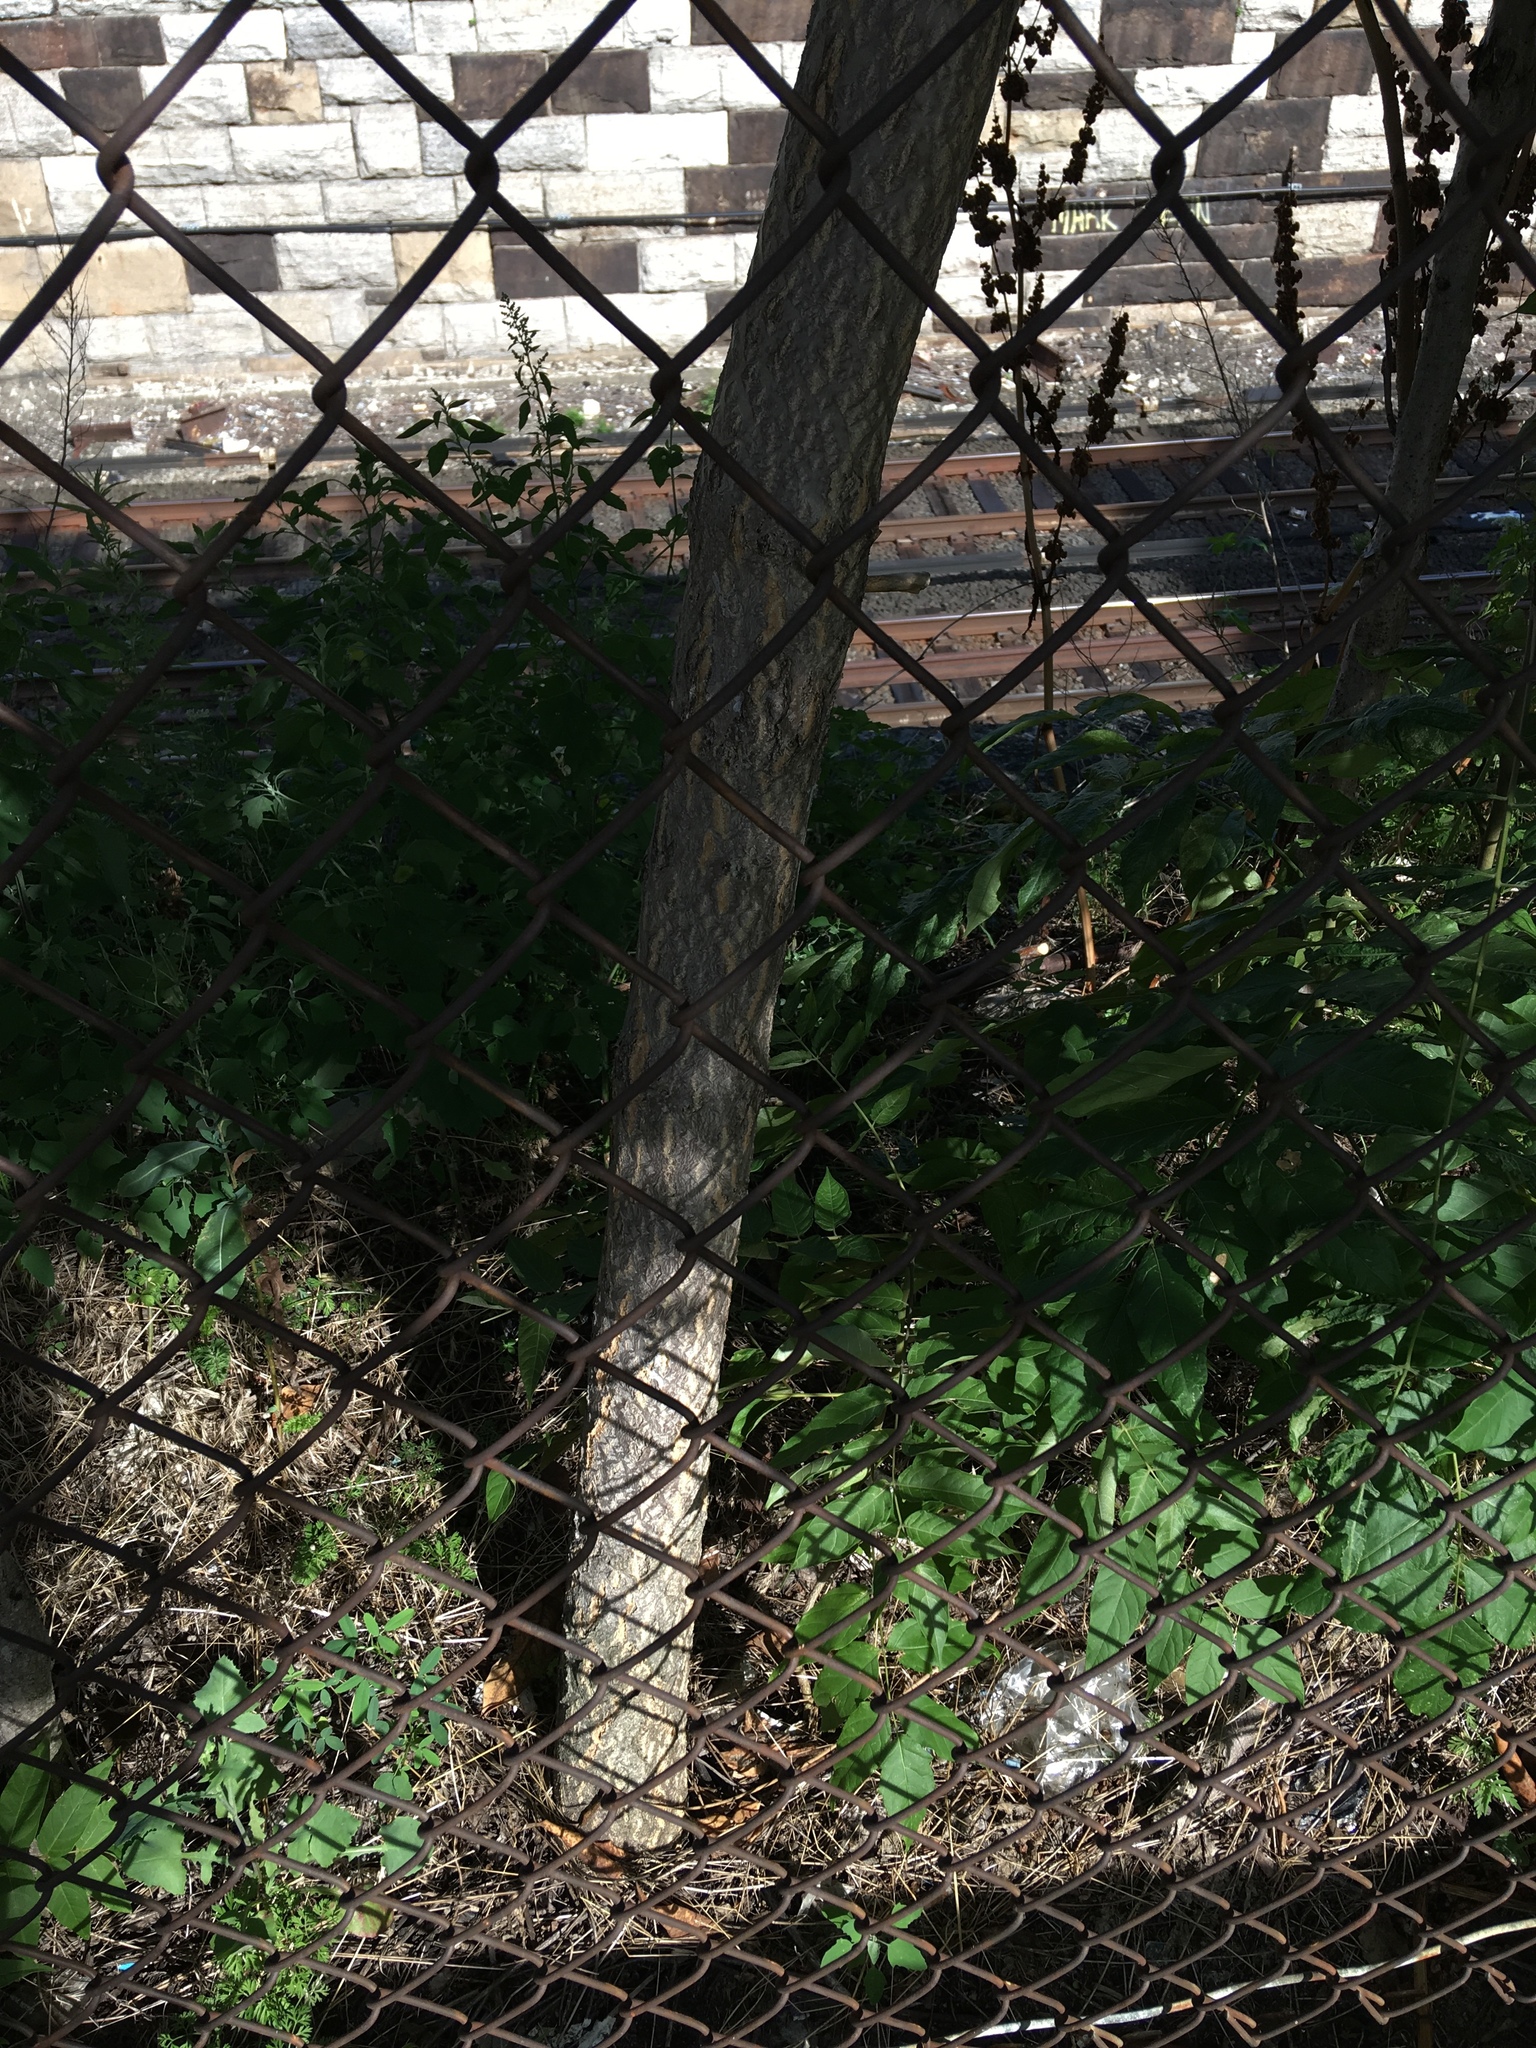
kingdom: Plantae
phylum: Tracheophyta
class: Magnoliopsida
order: Sapindales
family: Simaroubaceae
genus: Ailanthus
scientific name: Ailanthus altissima
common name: Tree-of-heaven
